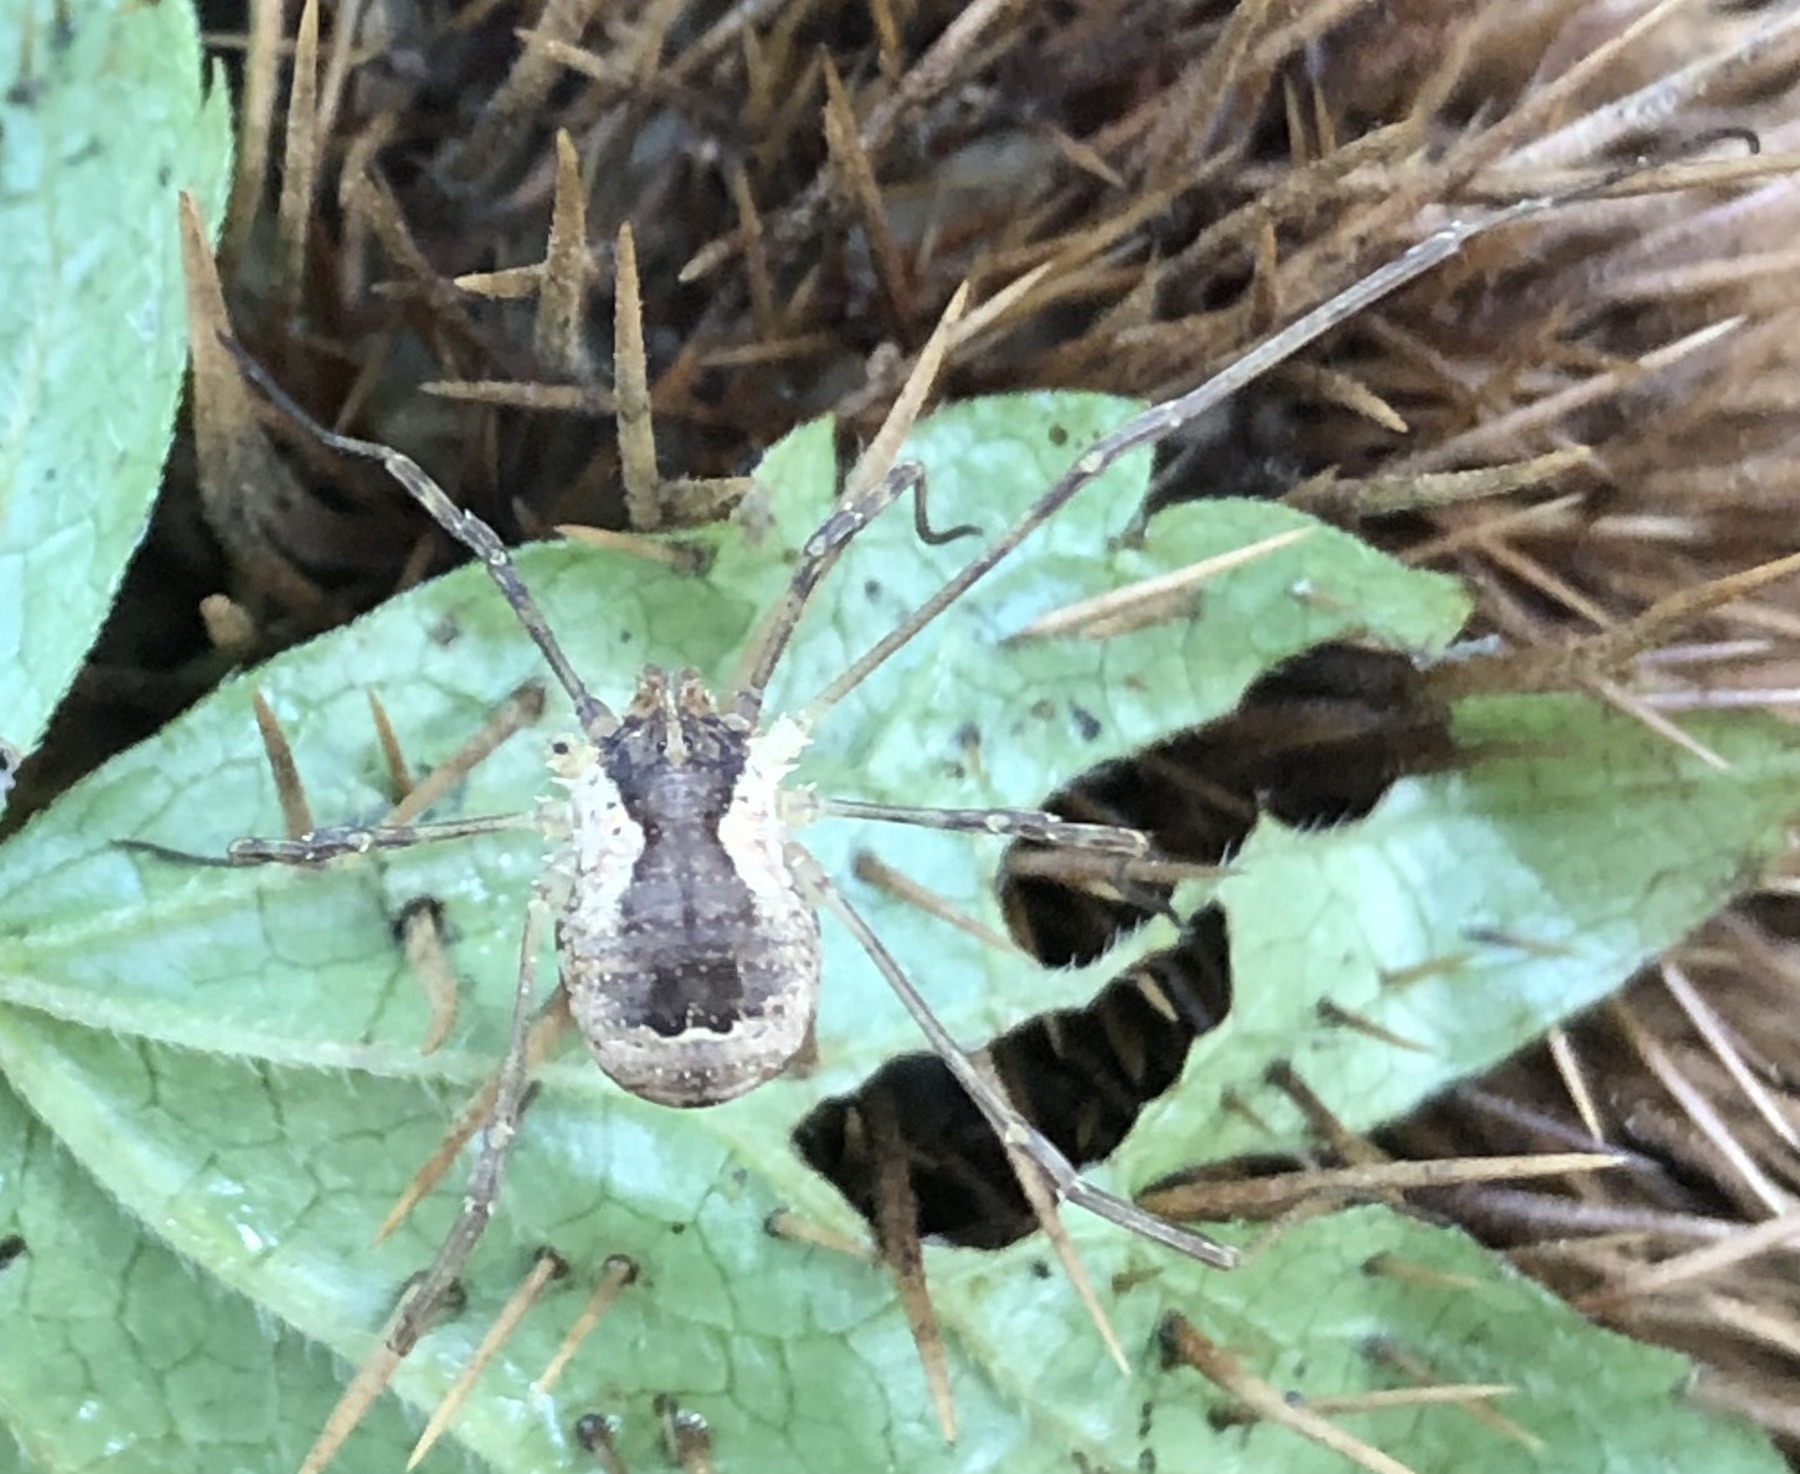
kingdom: Animalia
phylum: Arthropoda
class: Arachnida
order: Opiliones
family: Phalangiidae
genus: Lacinius
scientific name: Lacinius ephippiatus
